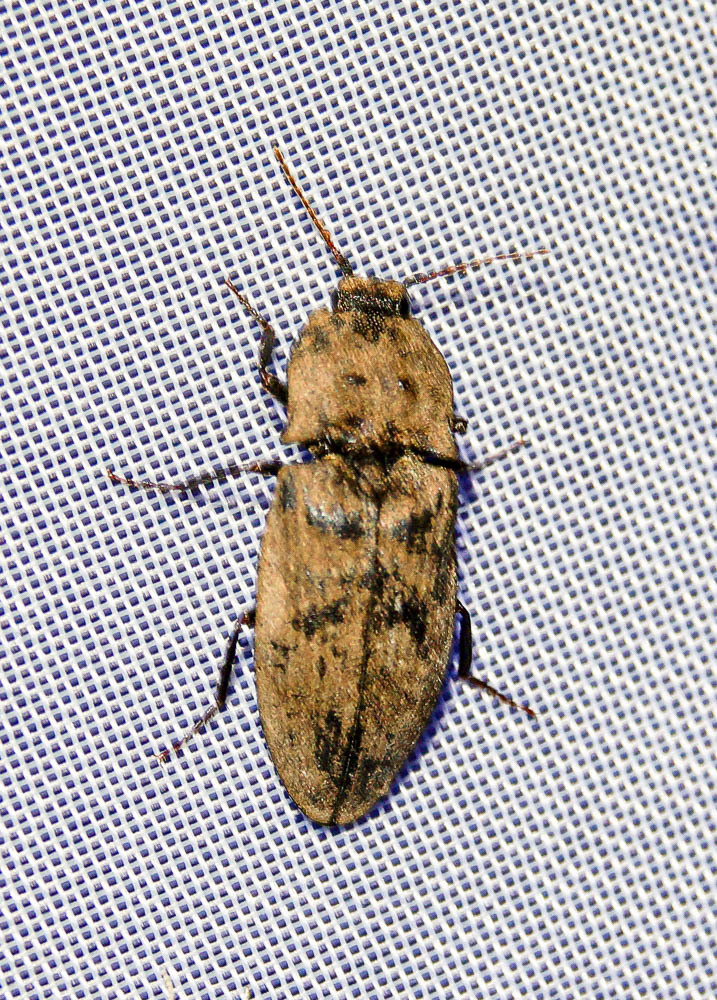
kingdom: Animalia
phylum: Arthropoda
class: Insecta
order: Coleoptera
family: Elateridae
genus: Agrypnus
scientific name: Agrypnus murinus
